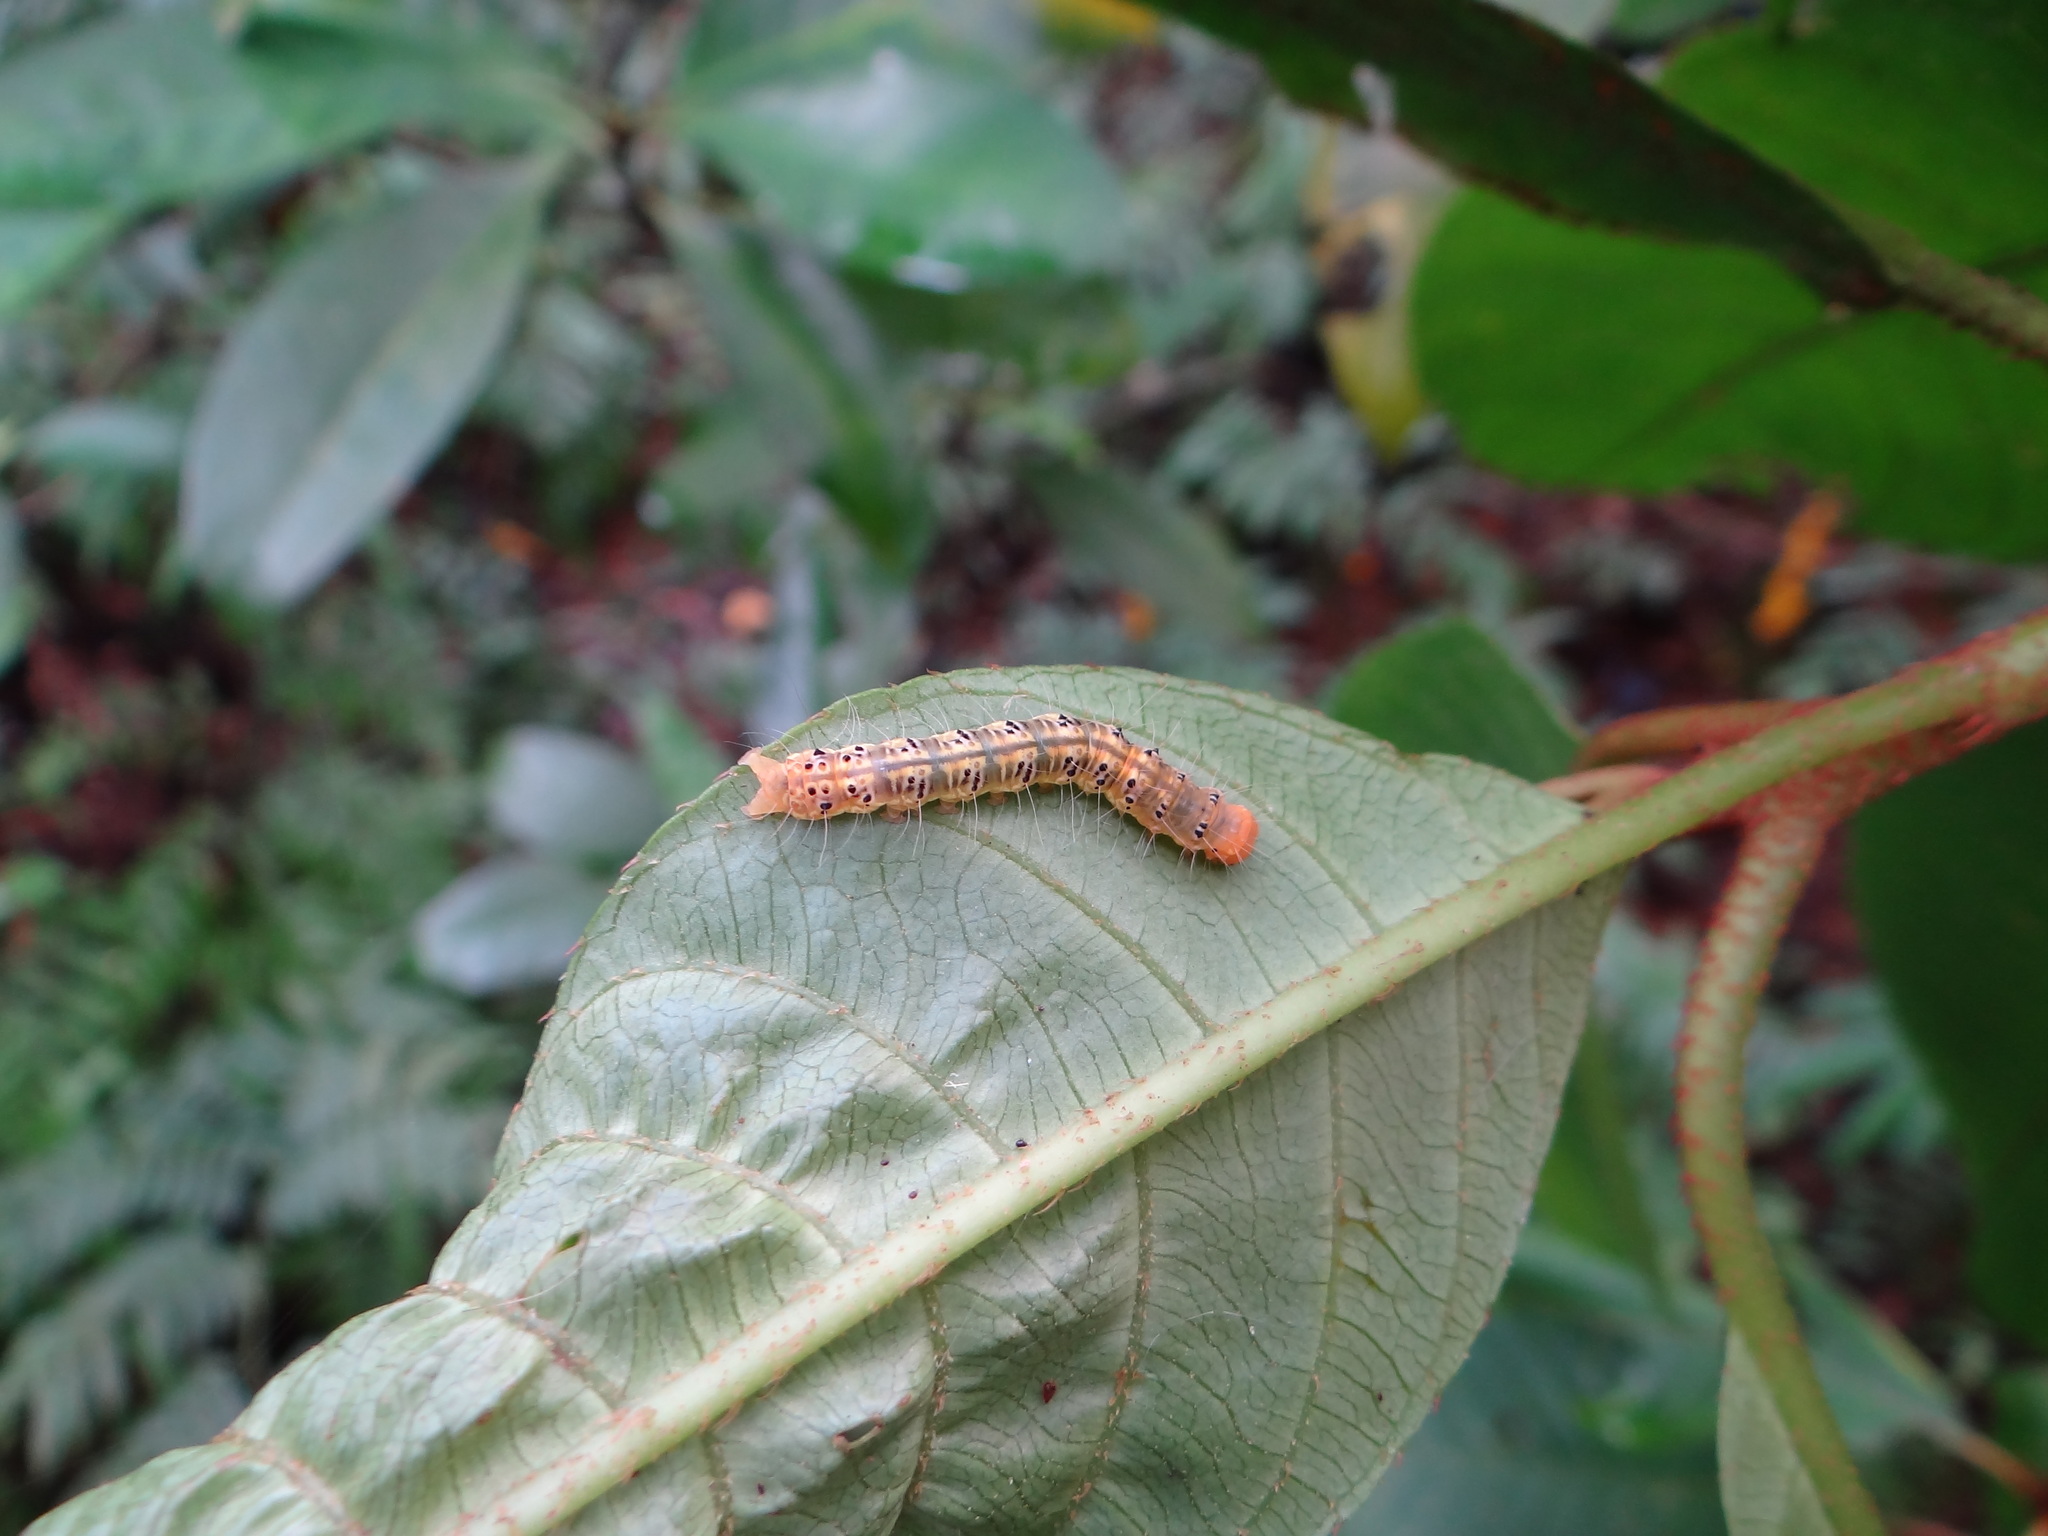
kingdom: Animalia
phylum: Arthropoda
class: Insecta
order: Lepidoptera
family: Erebidae
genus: Asota
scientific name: Asota heliconia
